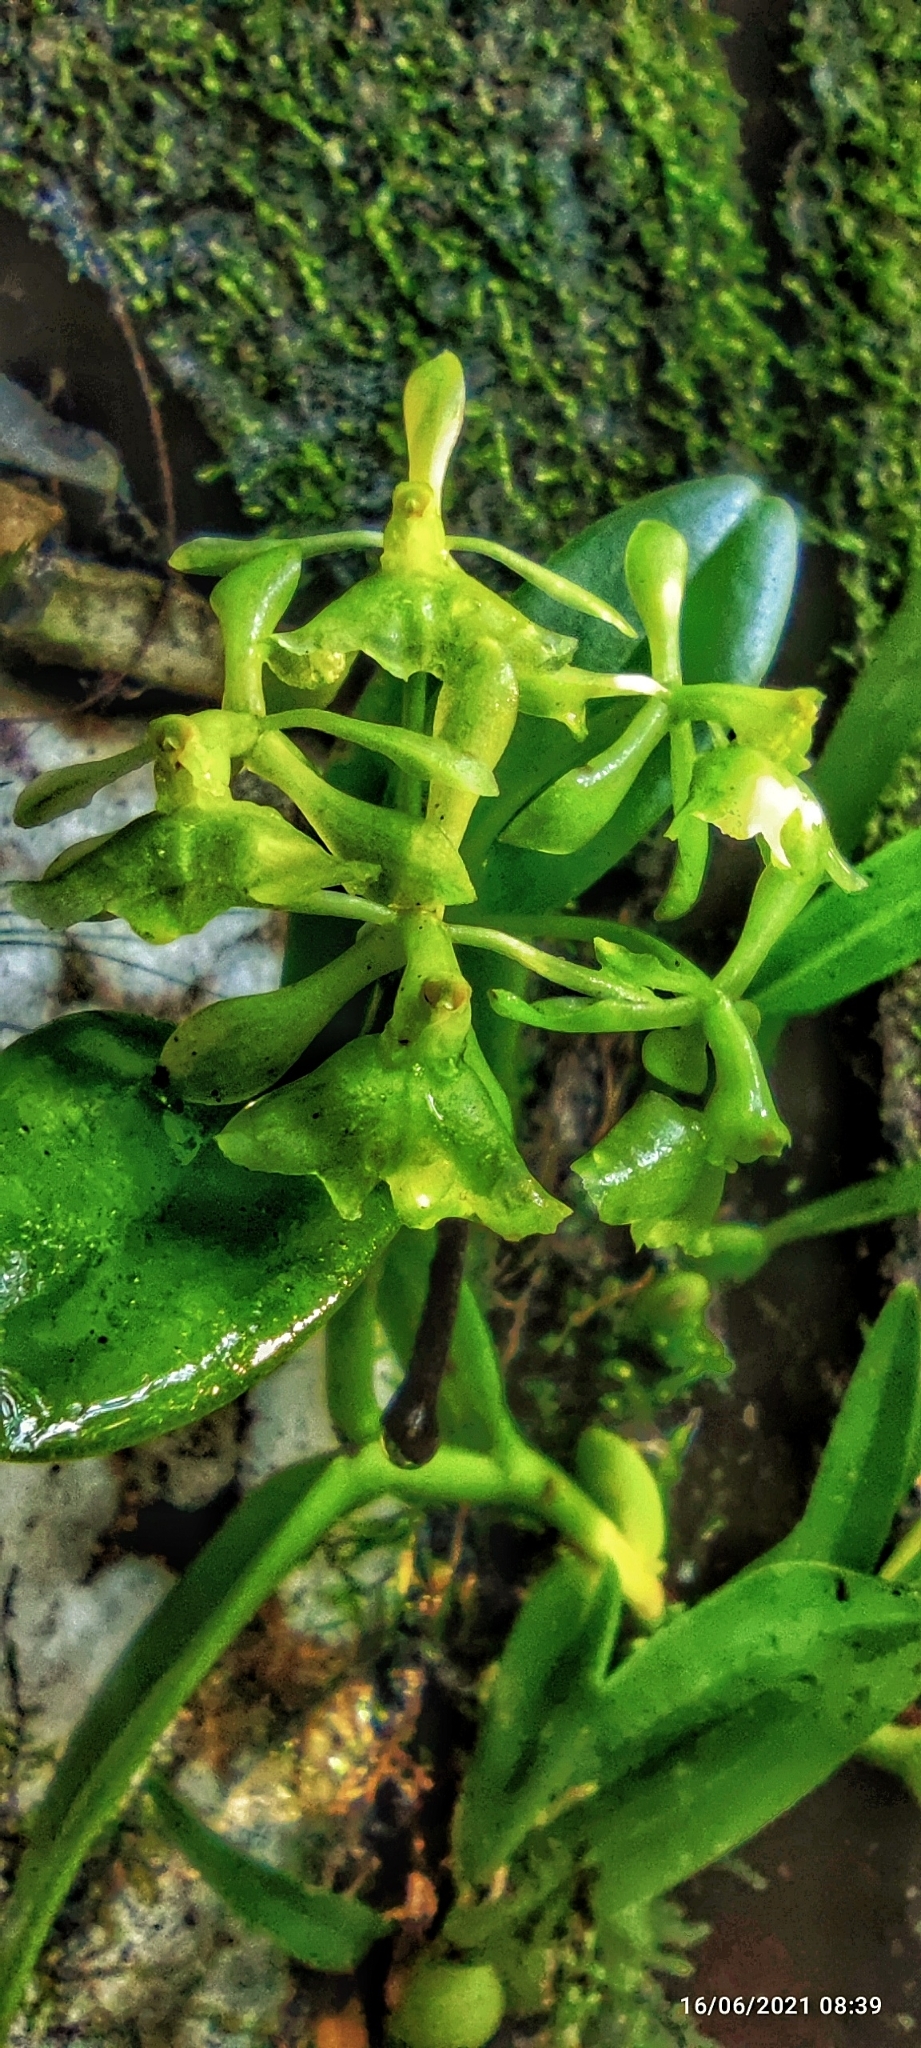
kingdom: Plantae
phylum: Tracheophyta
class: Liliopsida
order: Asparagales
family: Orchidaceae
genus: Epidendrum
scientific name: Epidendrum chlorocorymbos
